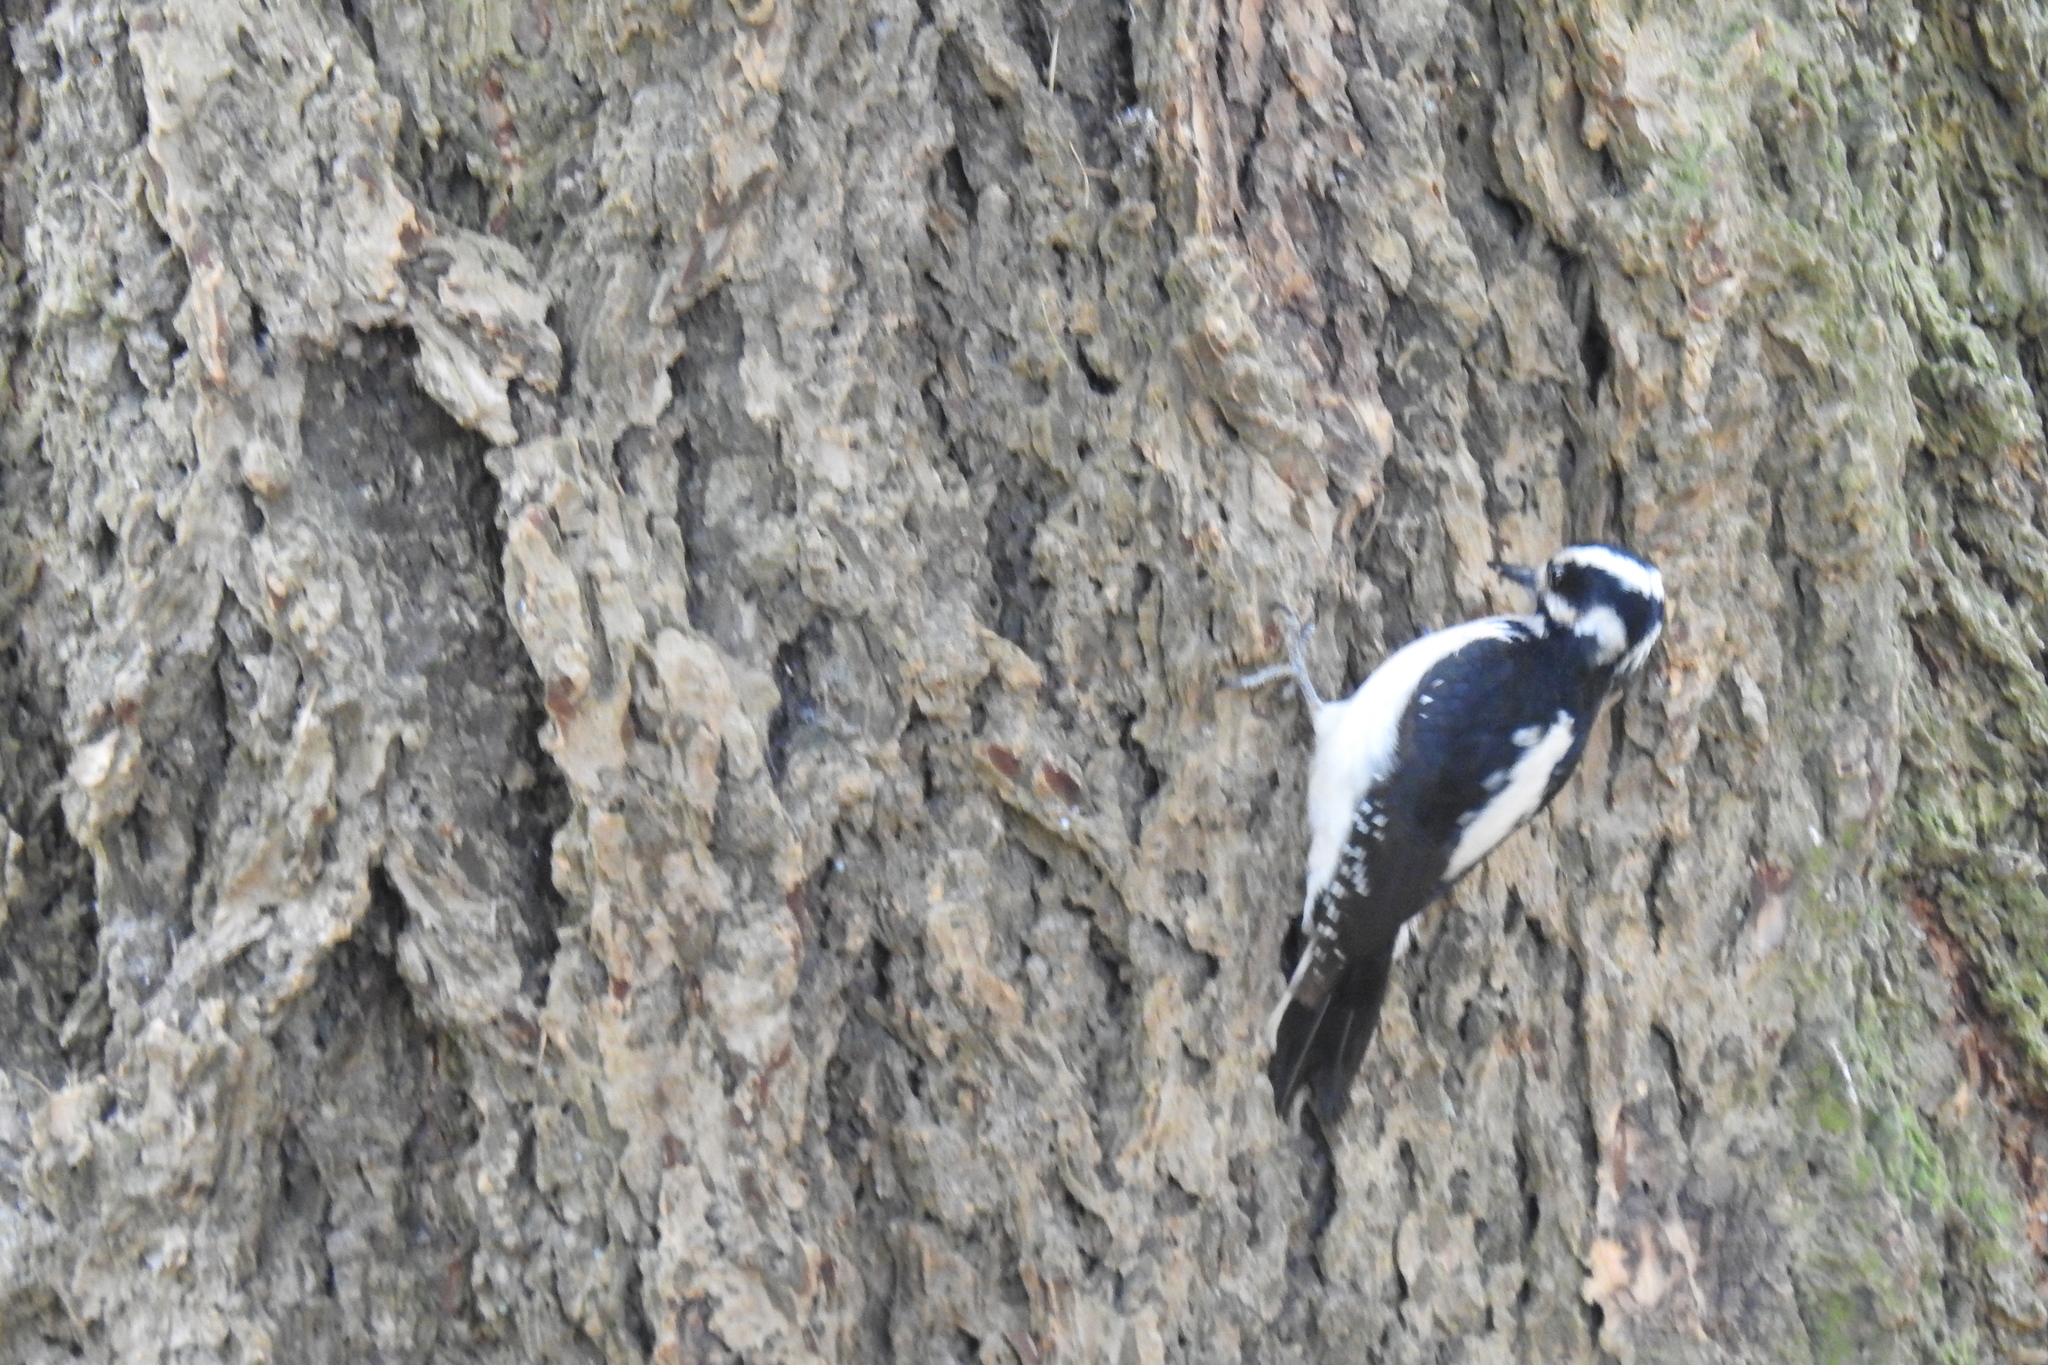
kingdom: Animalia
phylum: Chordata
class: Aves
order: Piciformes
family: Picidae
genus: Leuconotopicus
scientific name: Leuconotopicus villosus
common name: Hairy woodpecker
